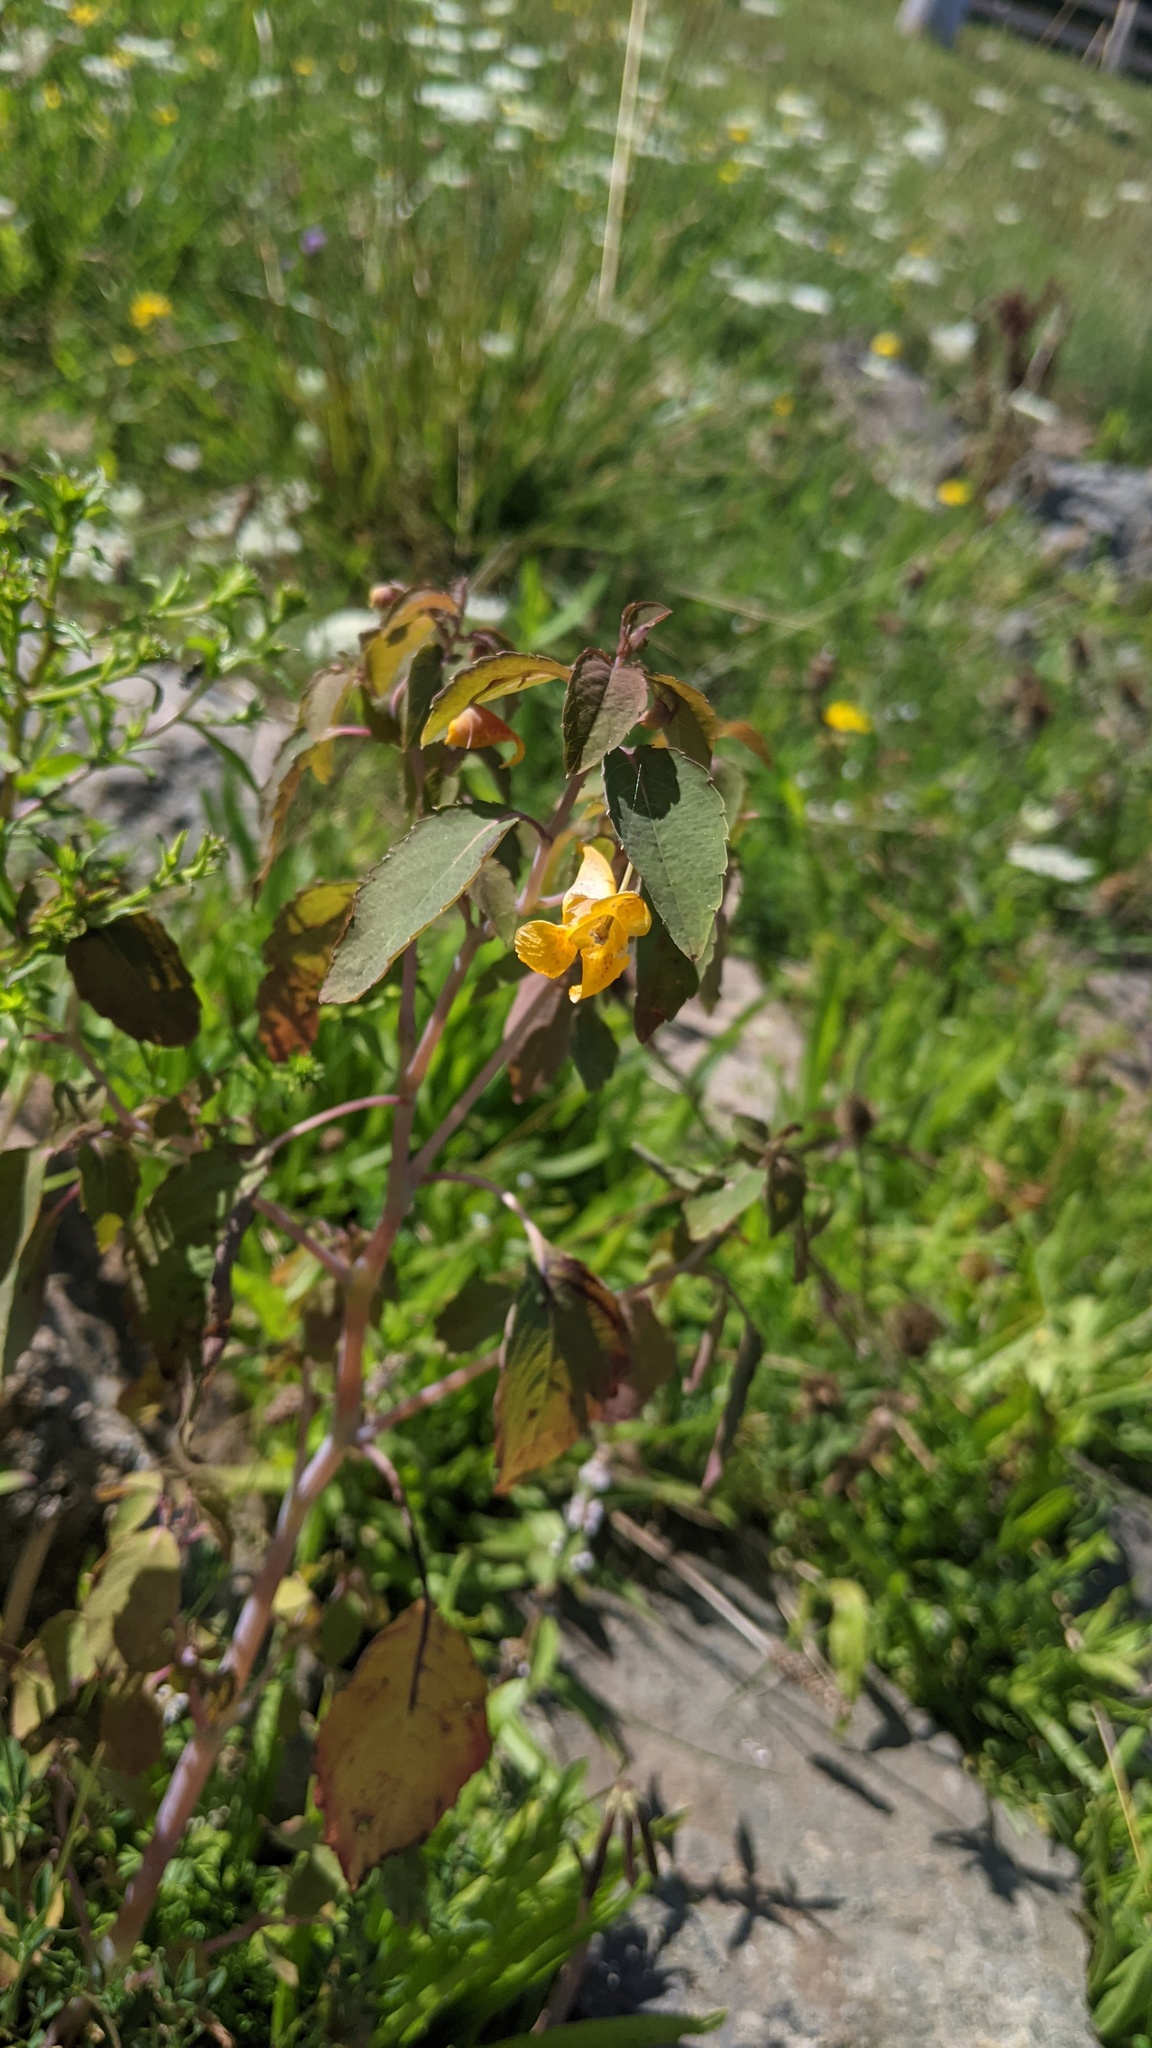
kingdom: Plantae
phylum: Tracheophyta
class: Magnoliopsida
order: Ericales
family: Balsaminaceae
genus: Impatiens
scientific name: Impatiens capensis
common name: Orange balsam
